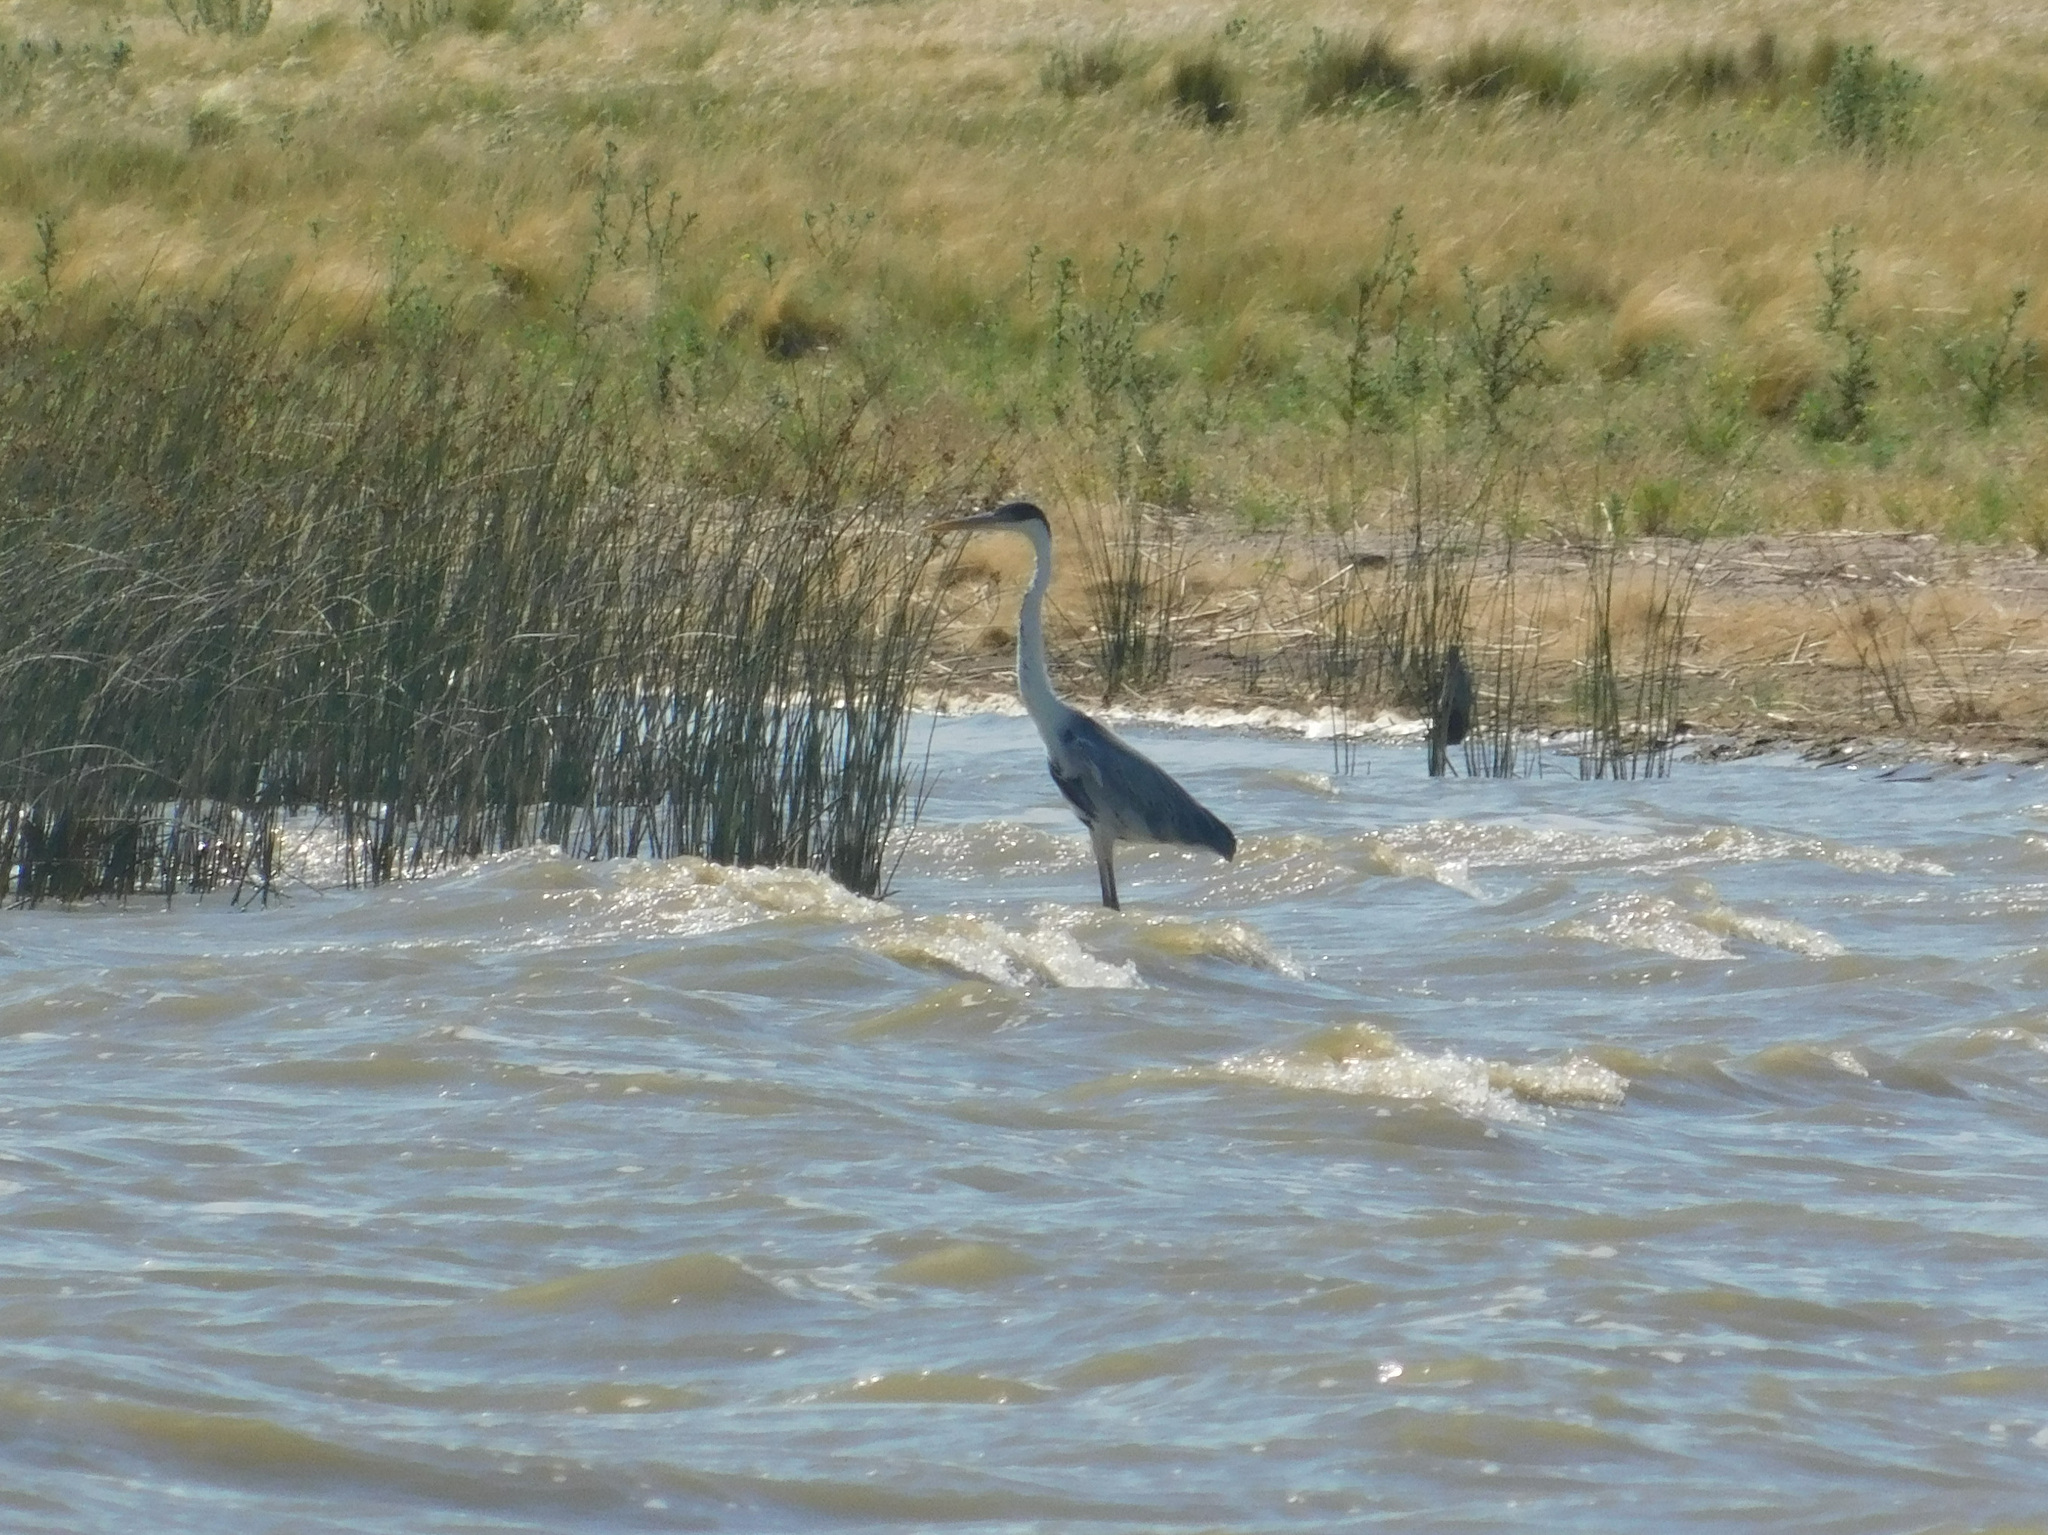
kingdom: Animalia
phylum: Chordata
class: Aves
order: Pelecaniformes
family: Ardeidae
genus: Ardea
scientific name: Ardea cocoi
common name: Cocoi heron
